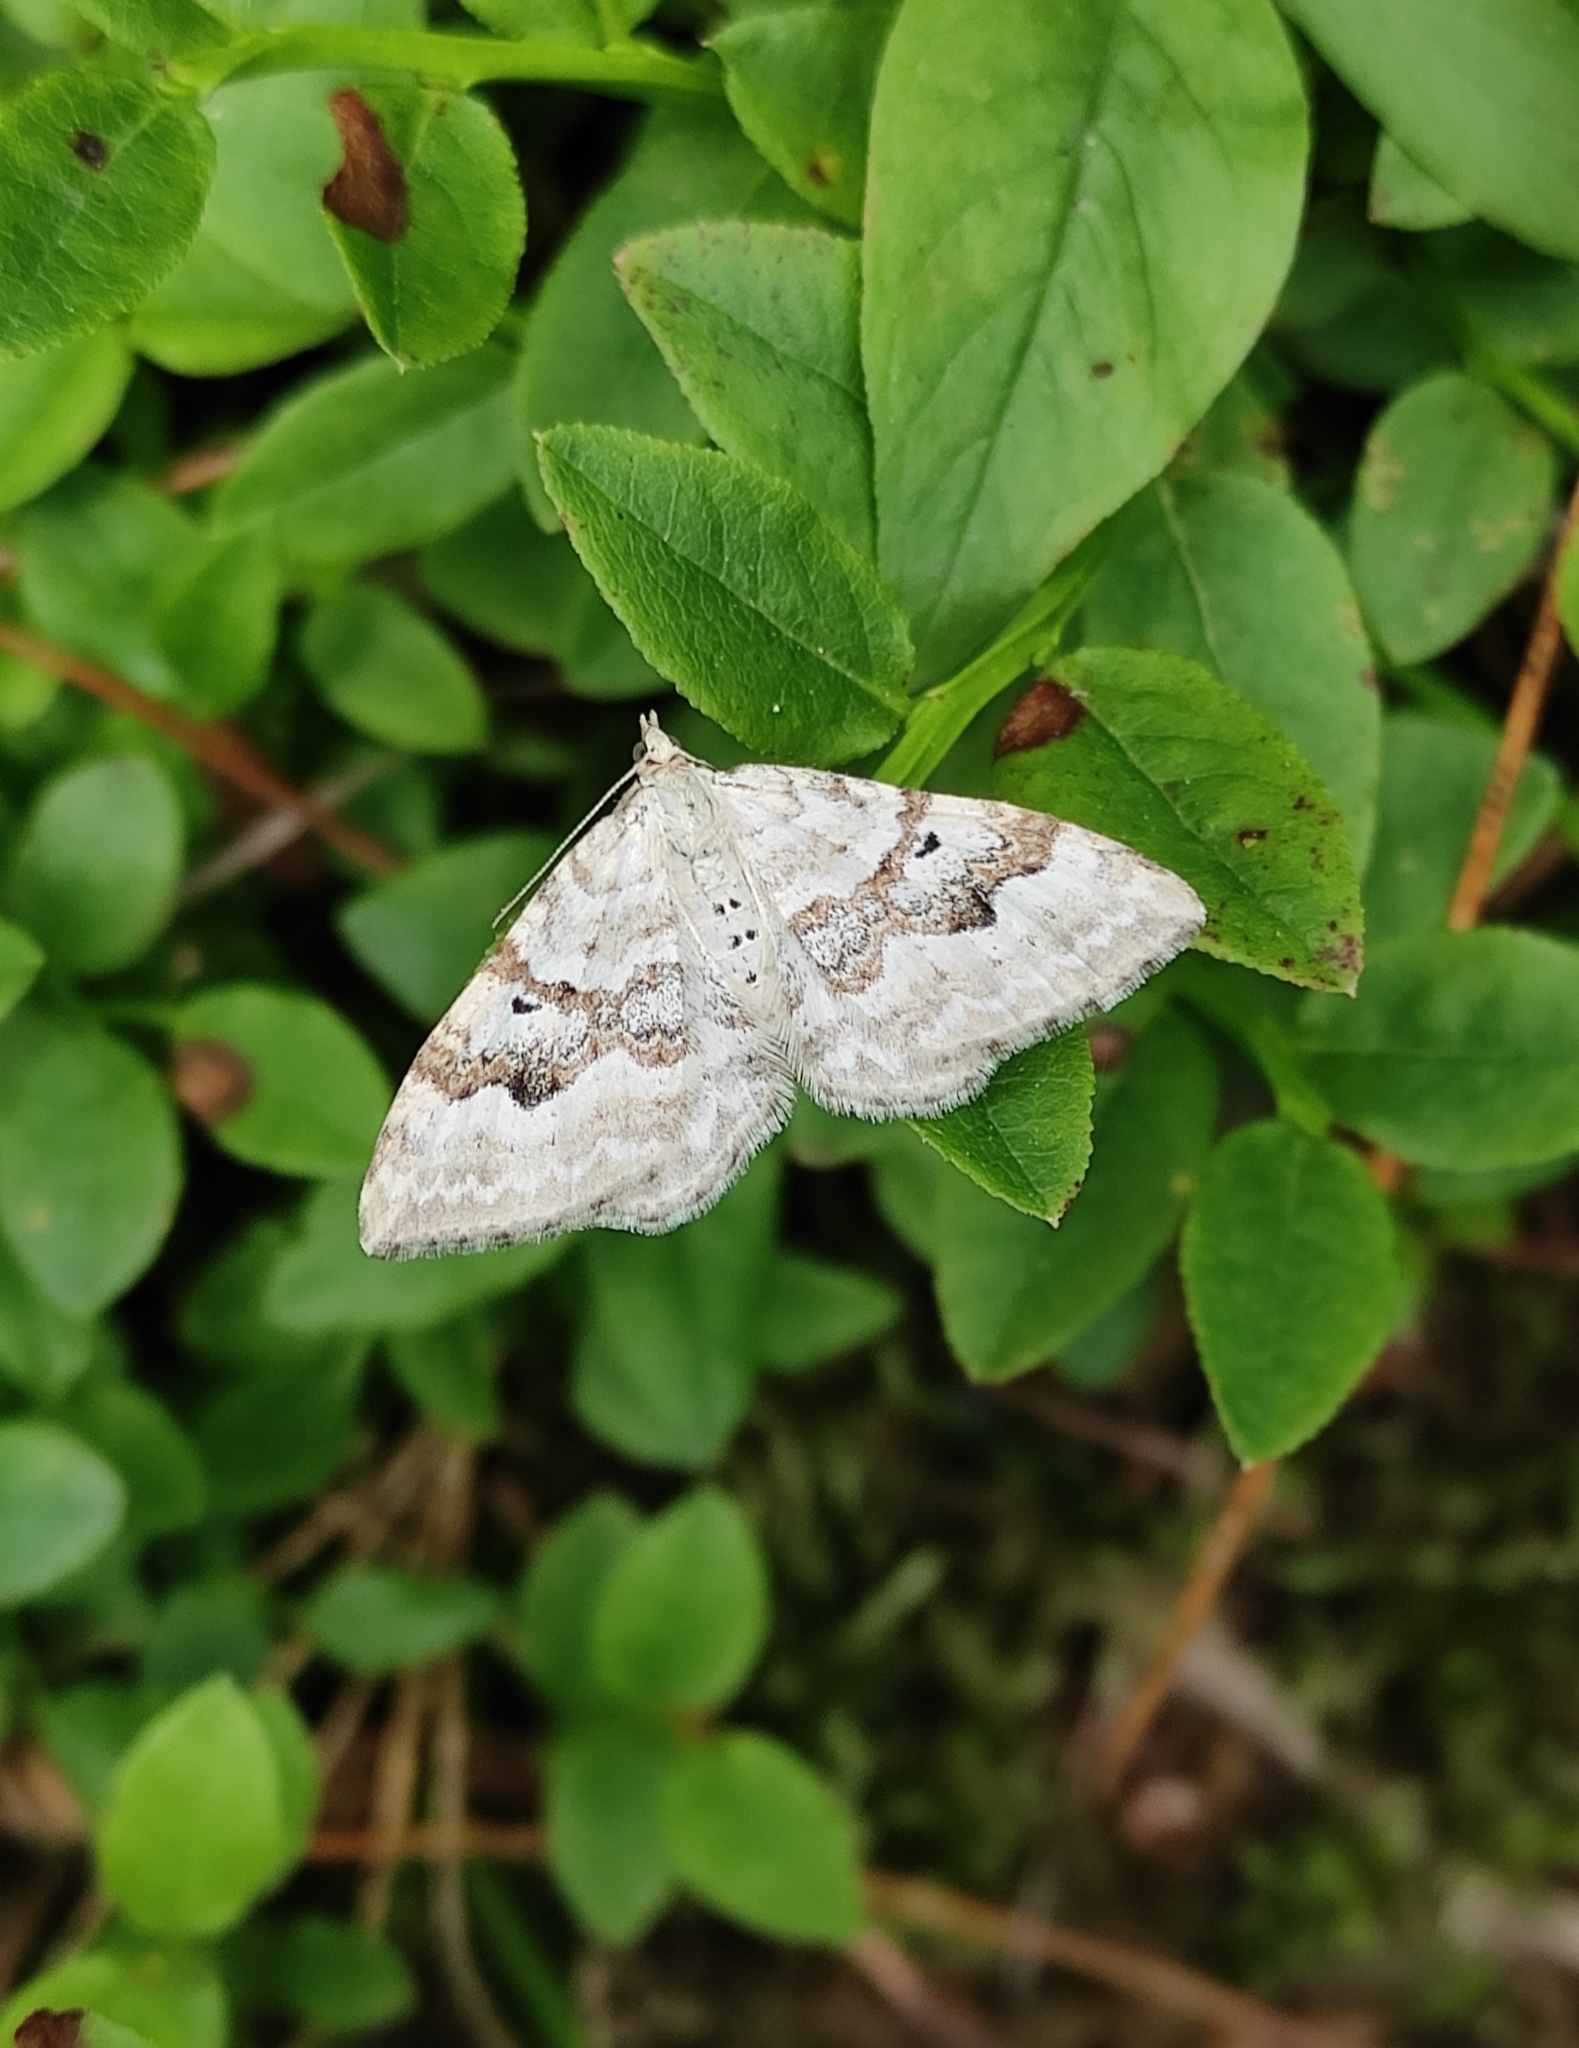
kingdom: Animalia
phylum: Arthropoda
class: Insecta
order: Lepidoptera
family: Geometridae
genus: Xanthorhoe
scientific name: Xanthorhoe montanata
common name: Silver-ground carpet
